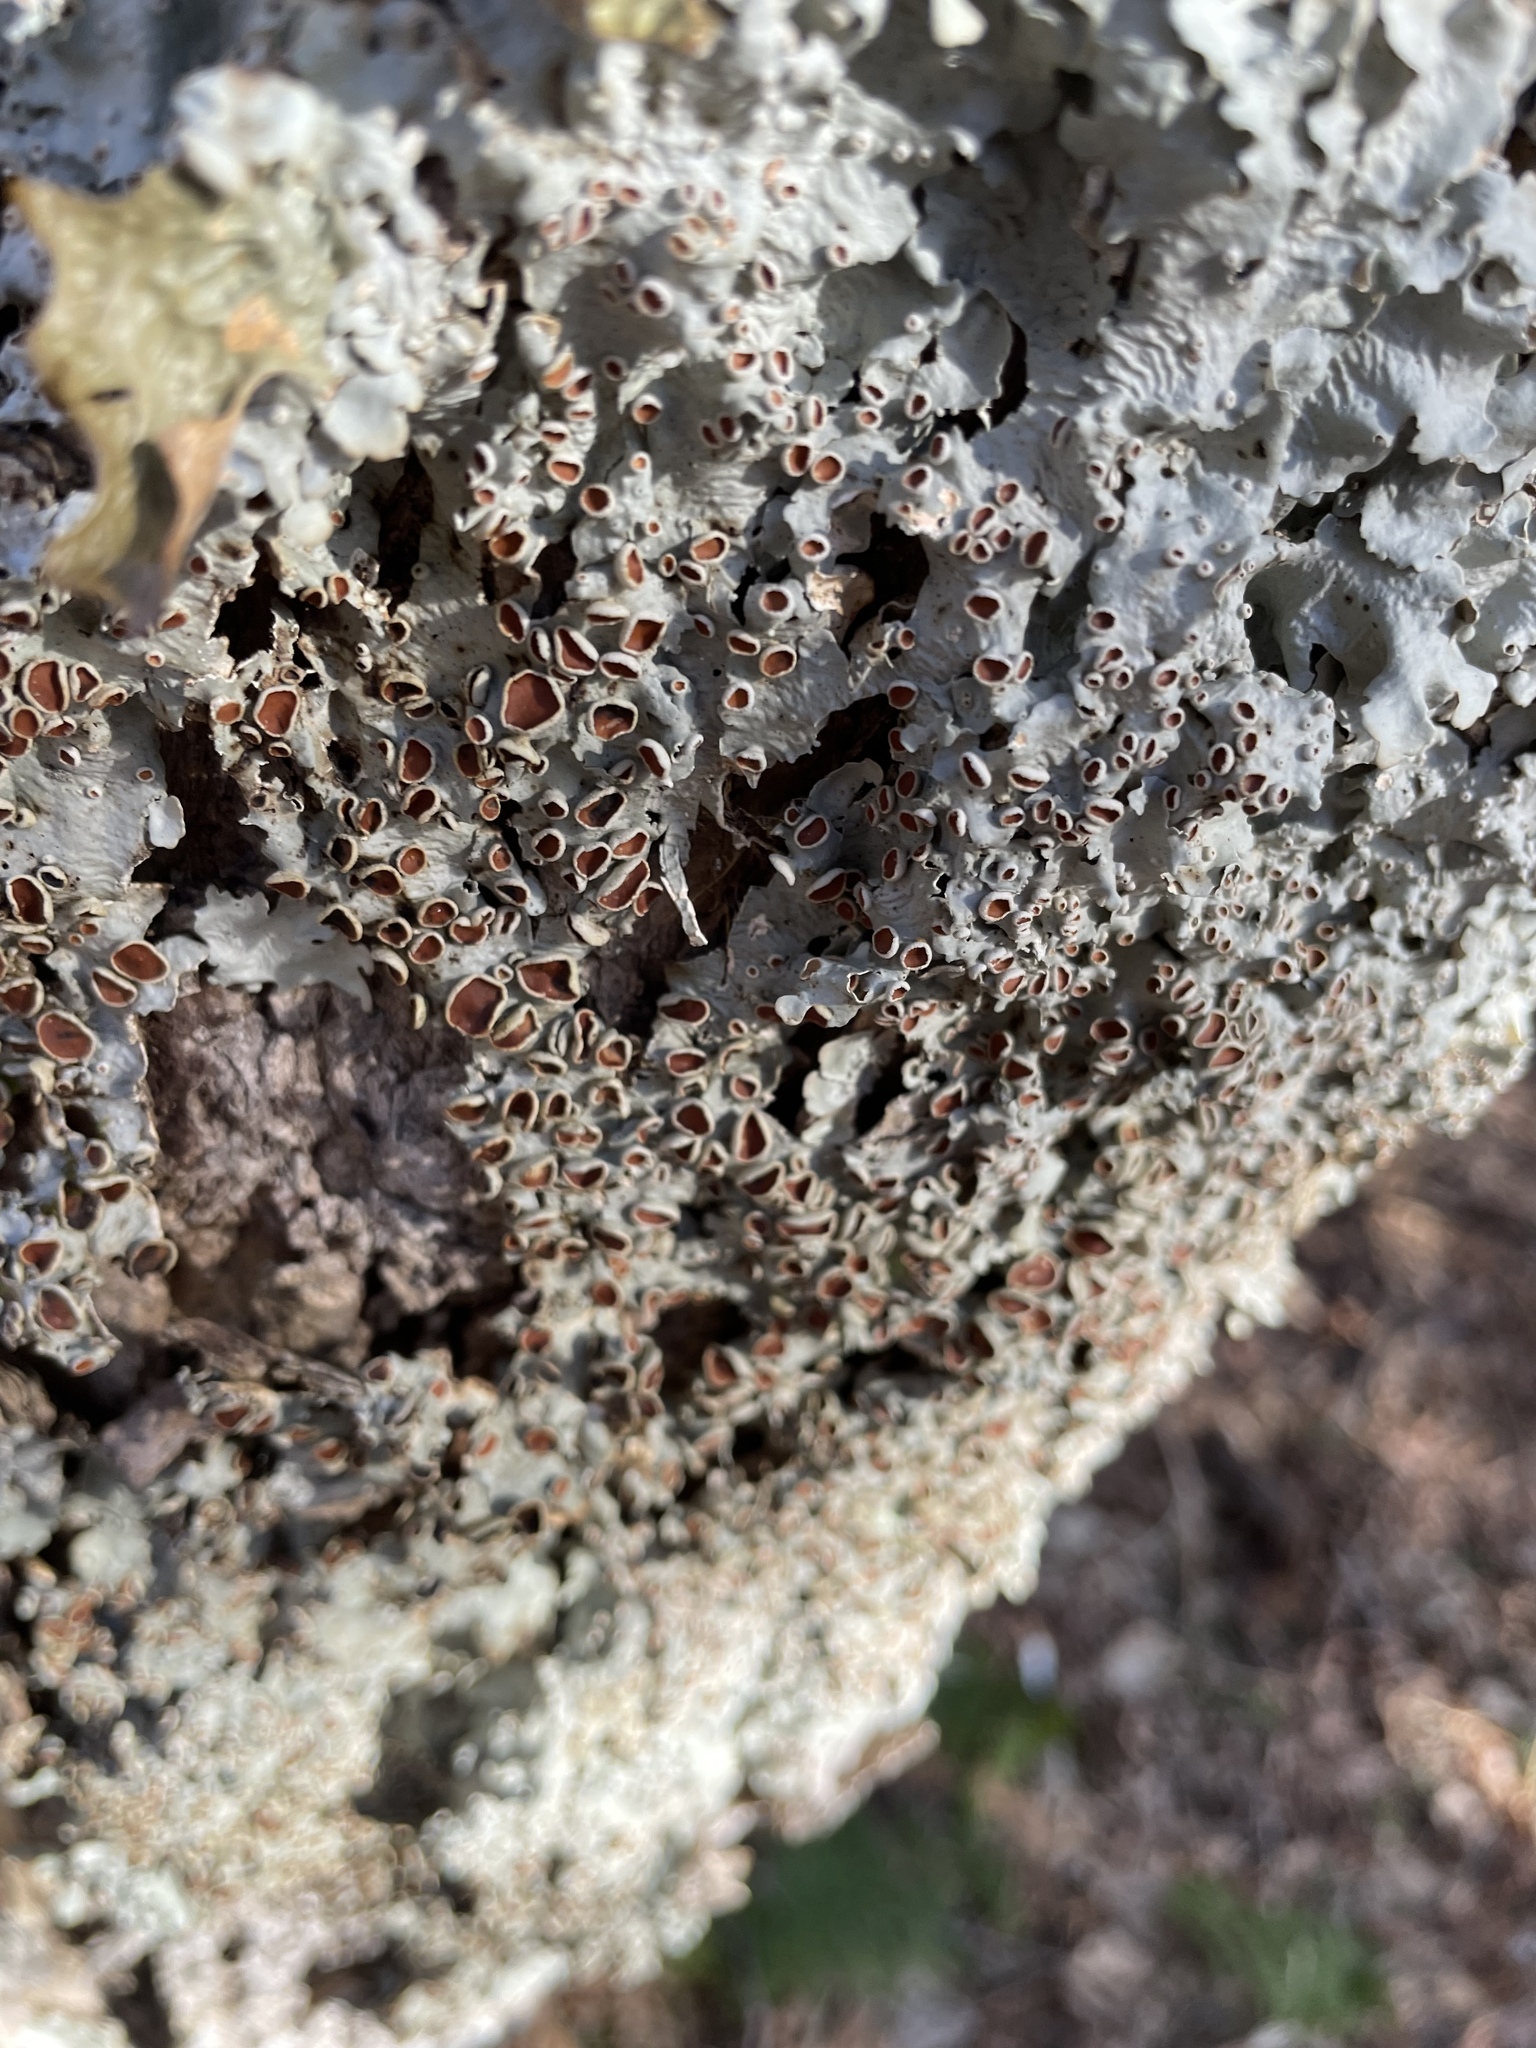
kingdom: Fungi
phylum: Ascomycota
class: Lecanoromycetes
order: Peltigerales
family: Lobariaceae
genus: Ricasolia
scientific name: Ricasolia quercizans
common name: Smooth lungwort
